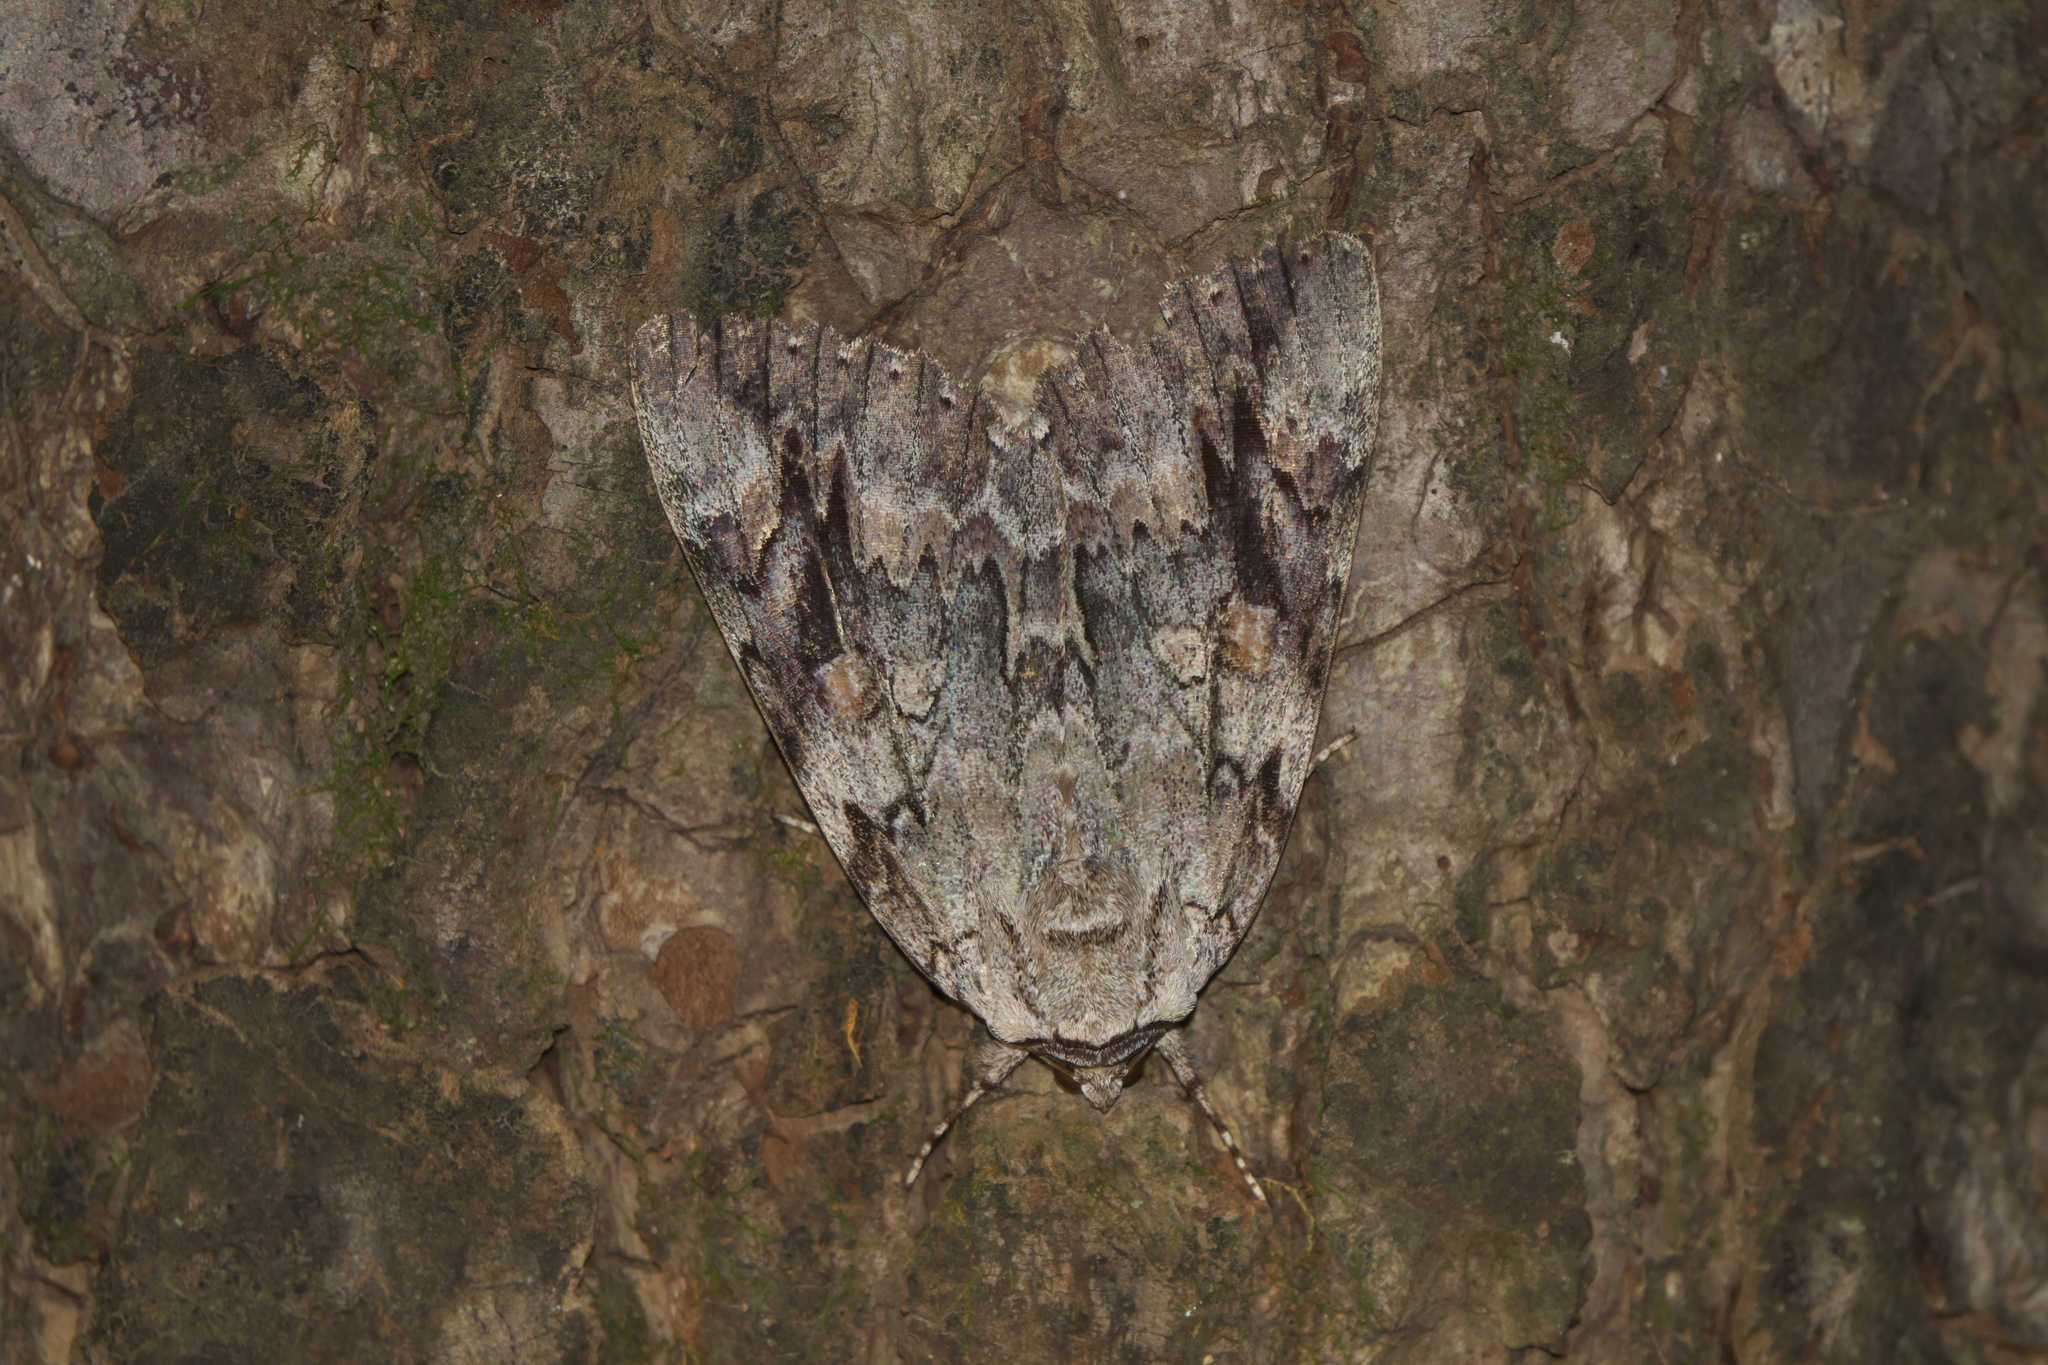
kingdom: Animalia
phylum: Arthropoda
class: Insecta
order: Lepidoptera
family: Erebidae
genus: Catocala
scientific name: Catocala maestosa
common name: Sad underwing
